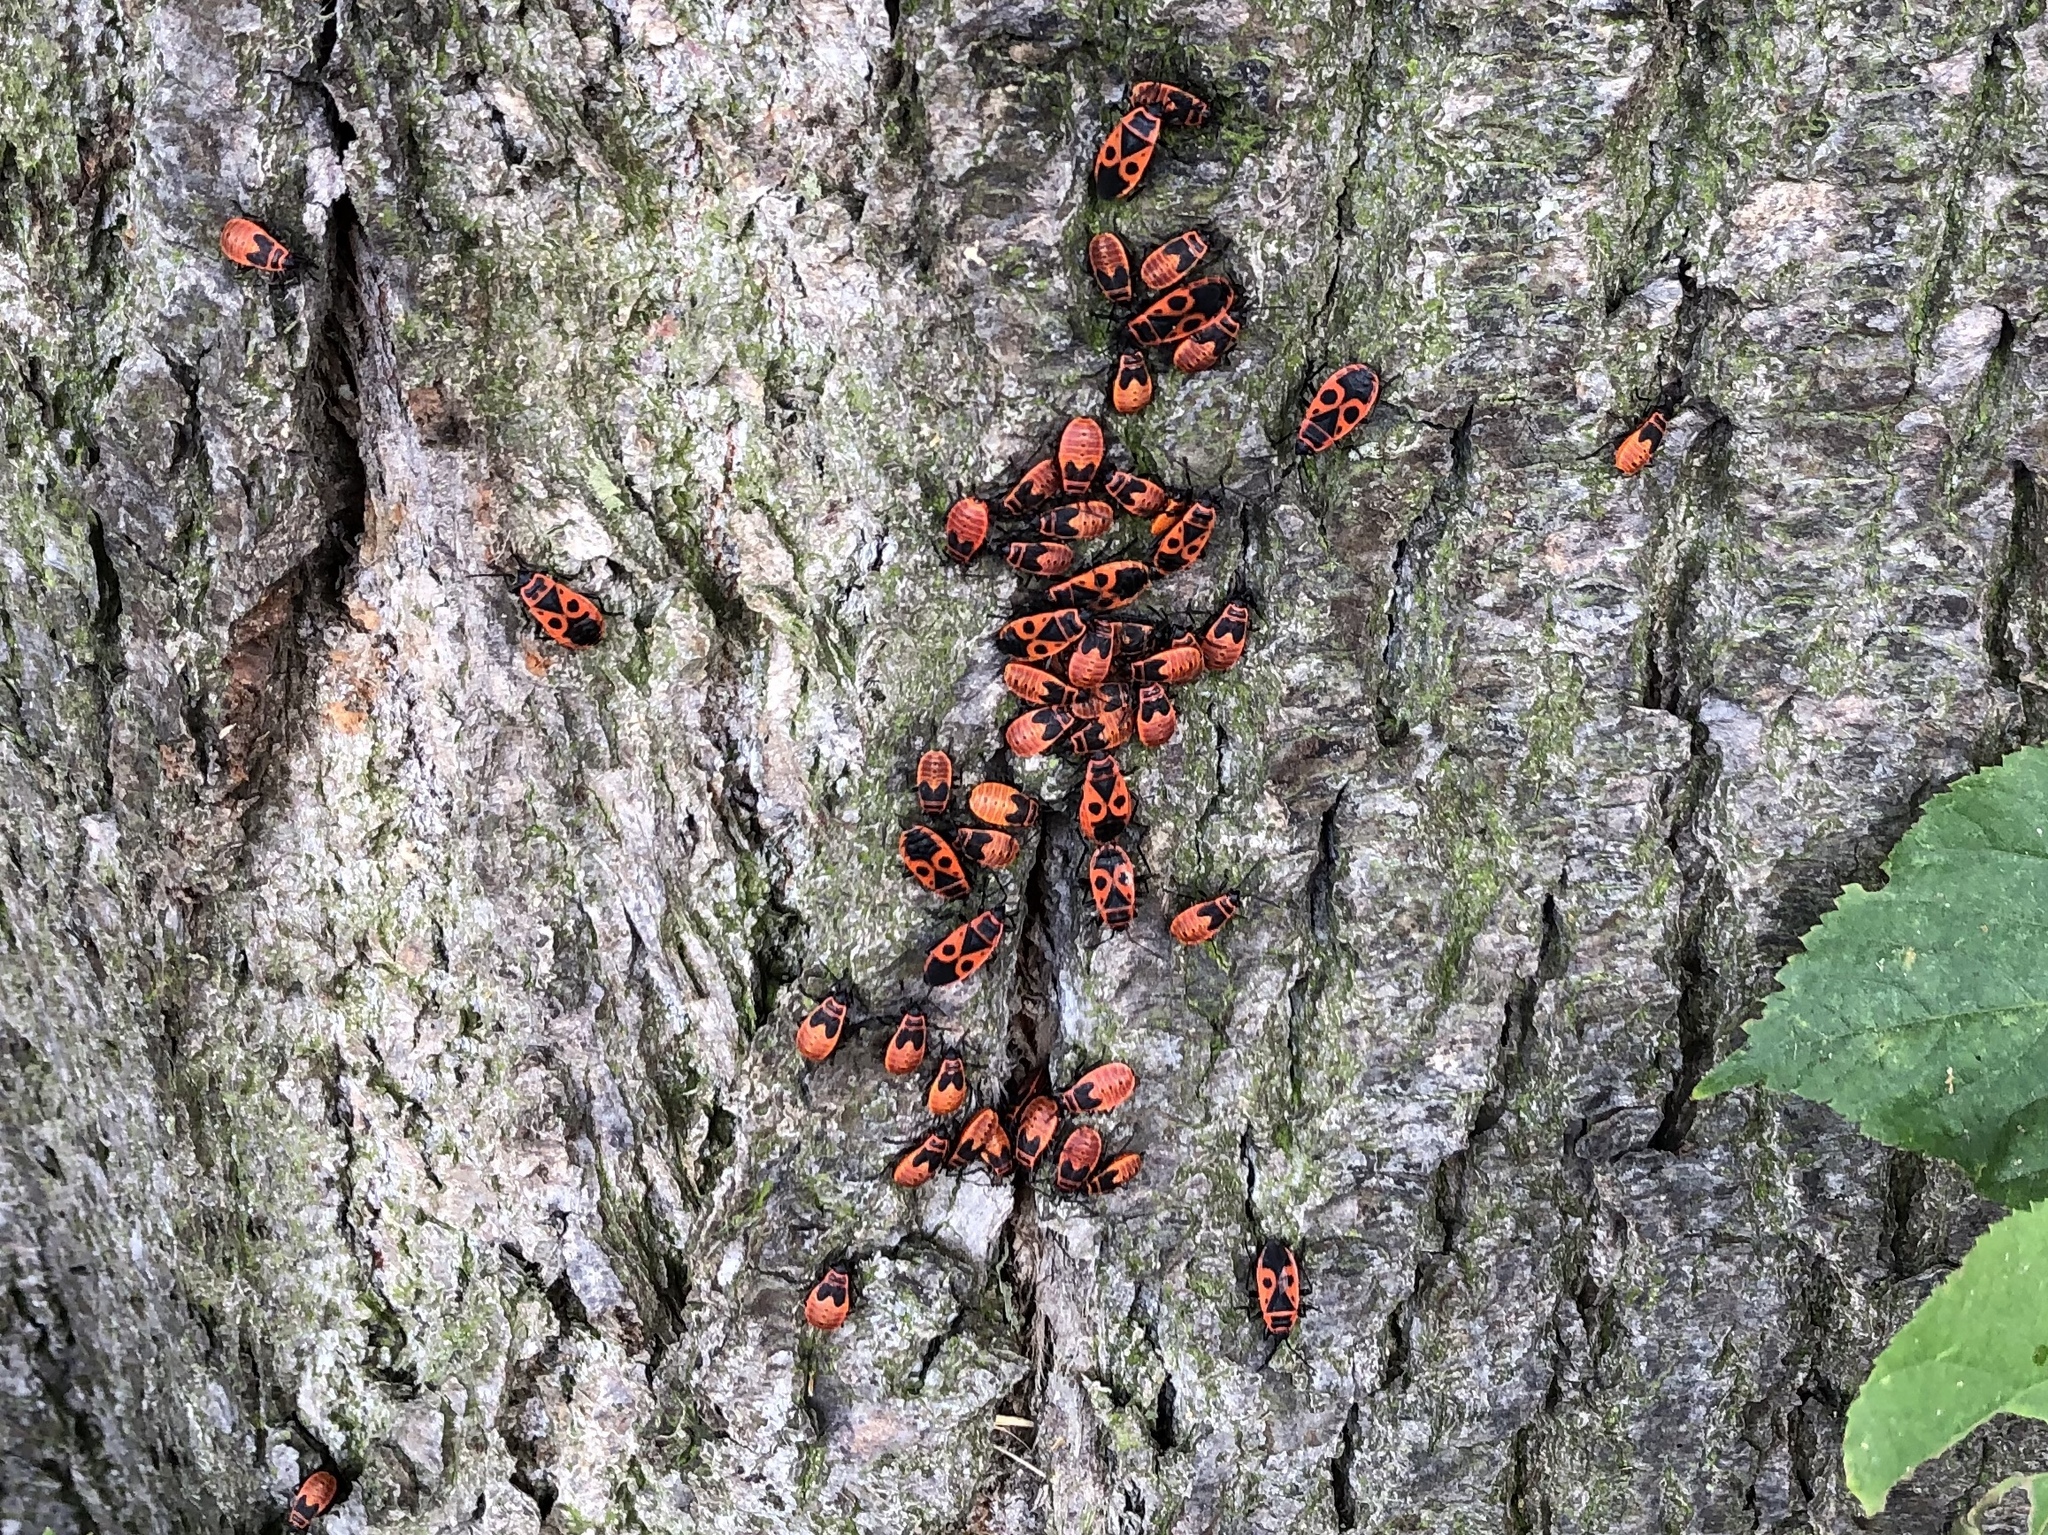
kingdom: Animalia
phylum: Arthropoda
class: Insecta
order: Hemiptera
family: Pyrrhocoridae
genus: Pyrrhocoris
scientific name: Pyrrhocoris apterus
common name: Firebug
